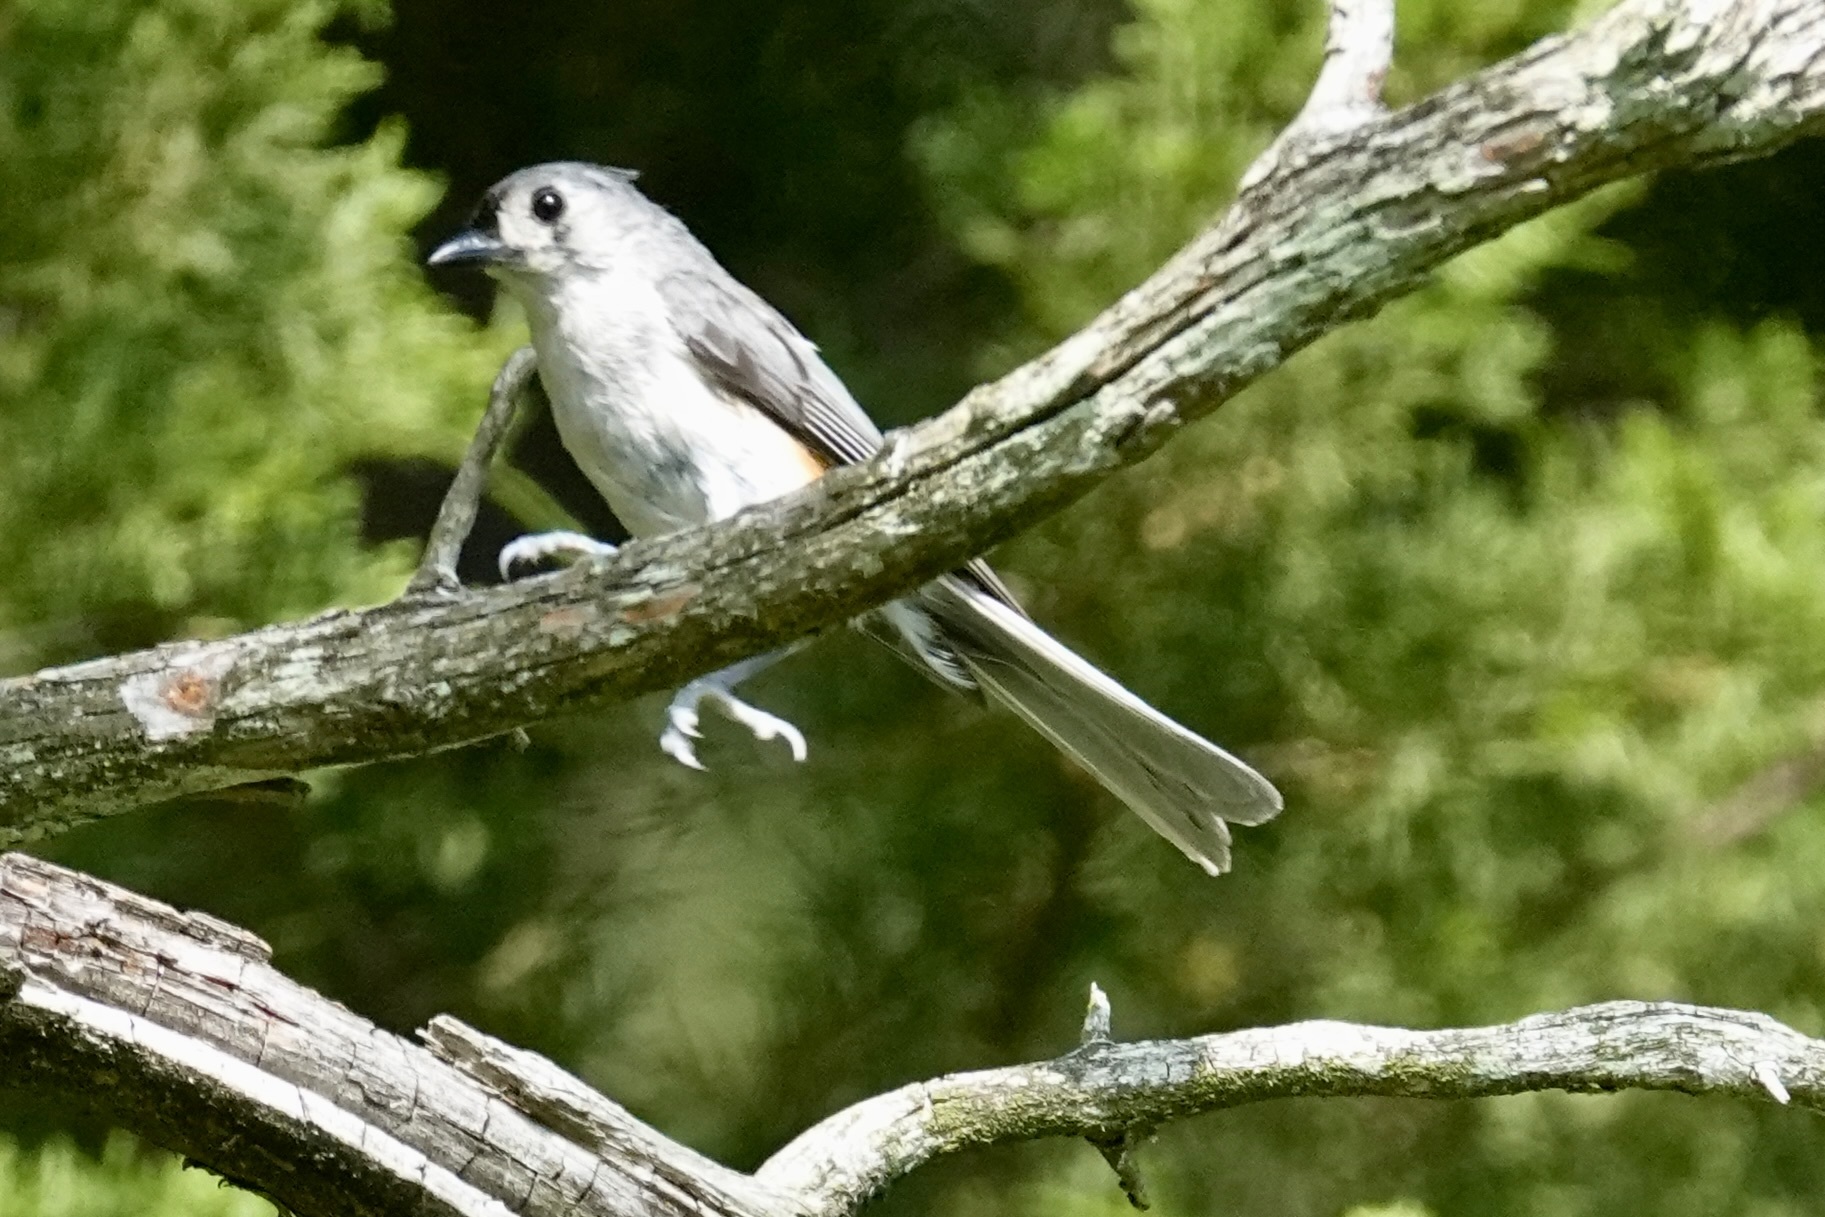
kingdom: Animalia
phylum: Chordata
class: Aves
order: Passeriformes
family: Paridae
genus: Baeolophus
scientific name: Baeolophus bicolor
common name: Tufted titmouse
